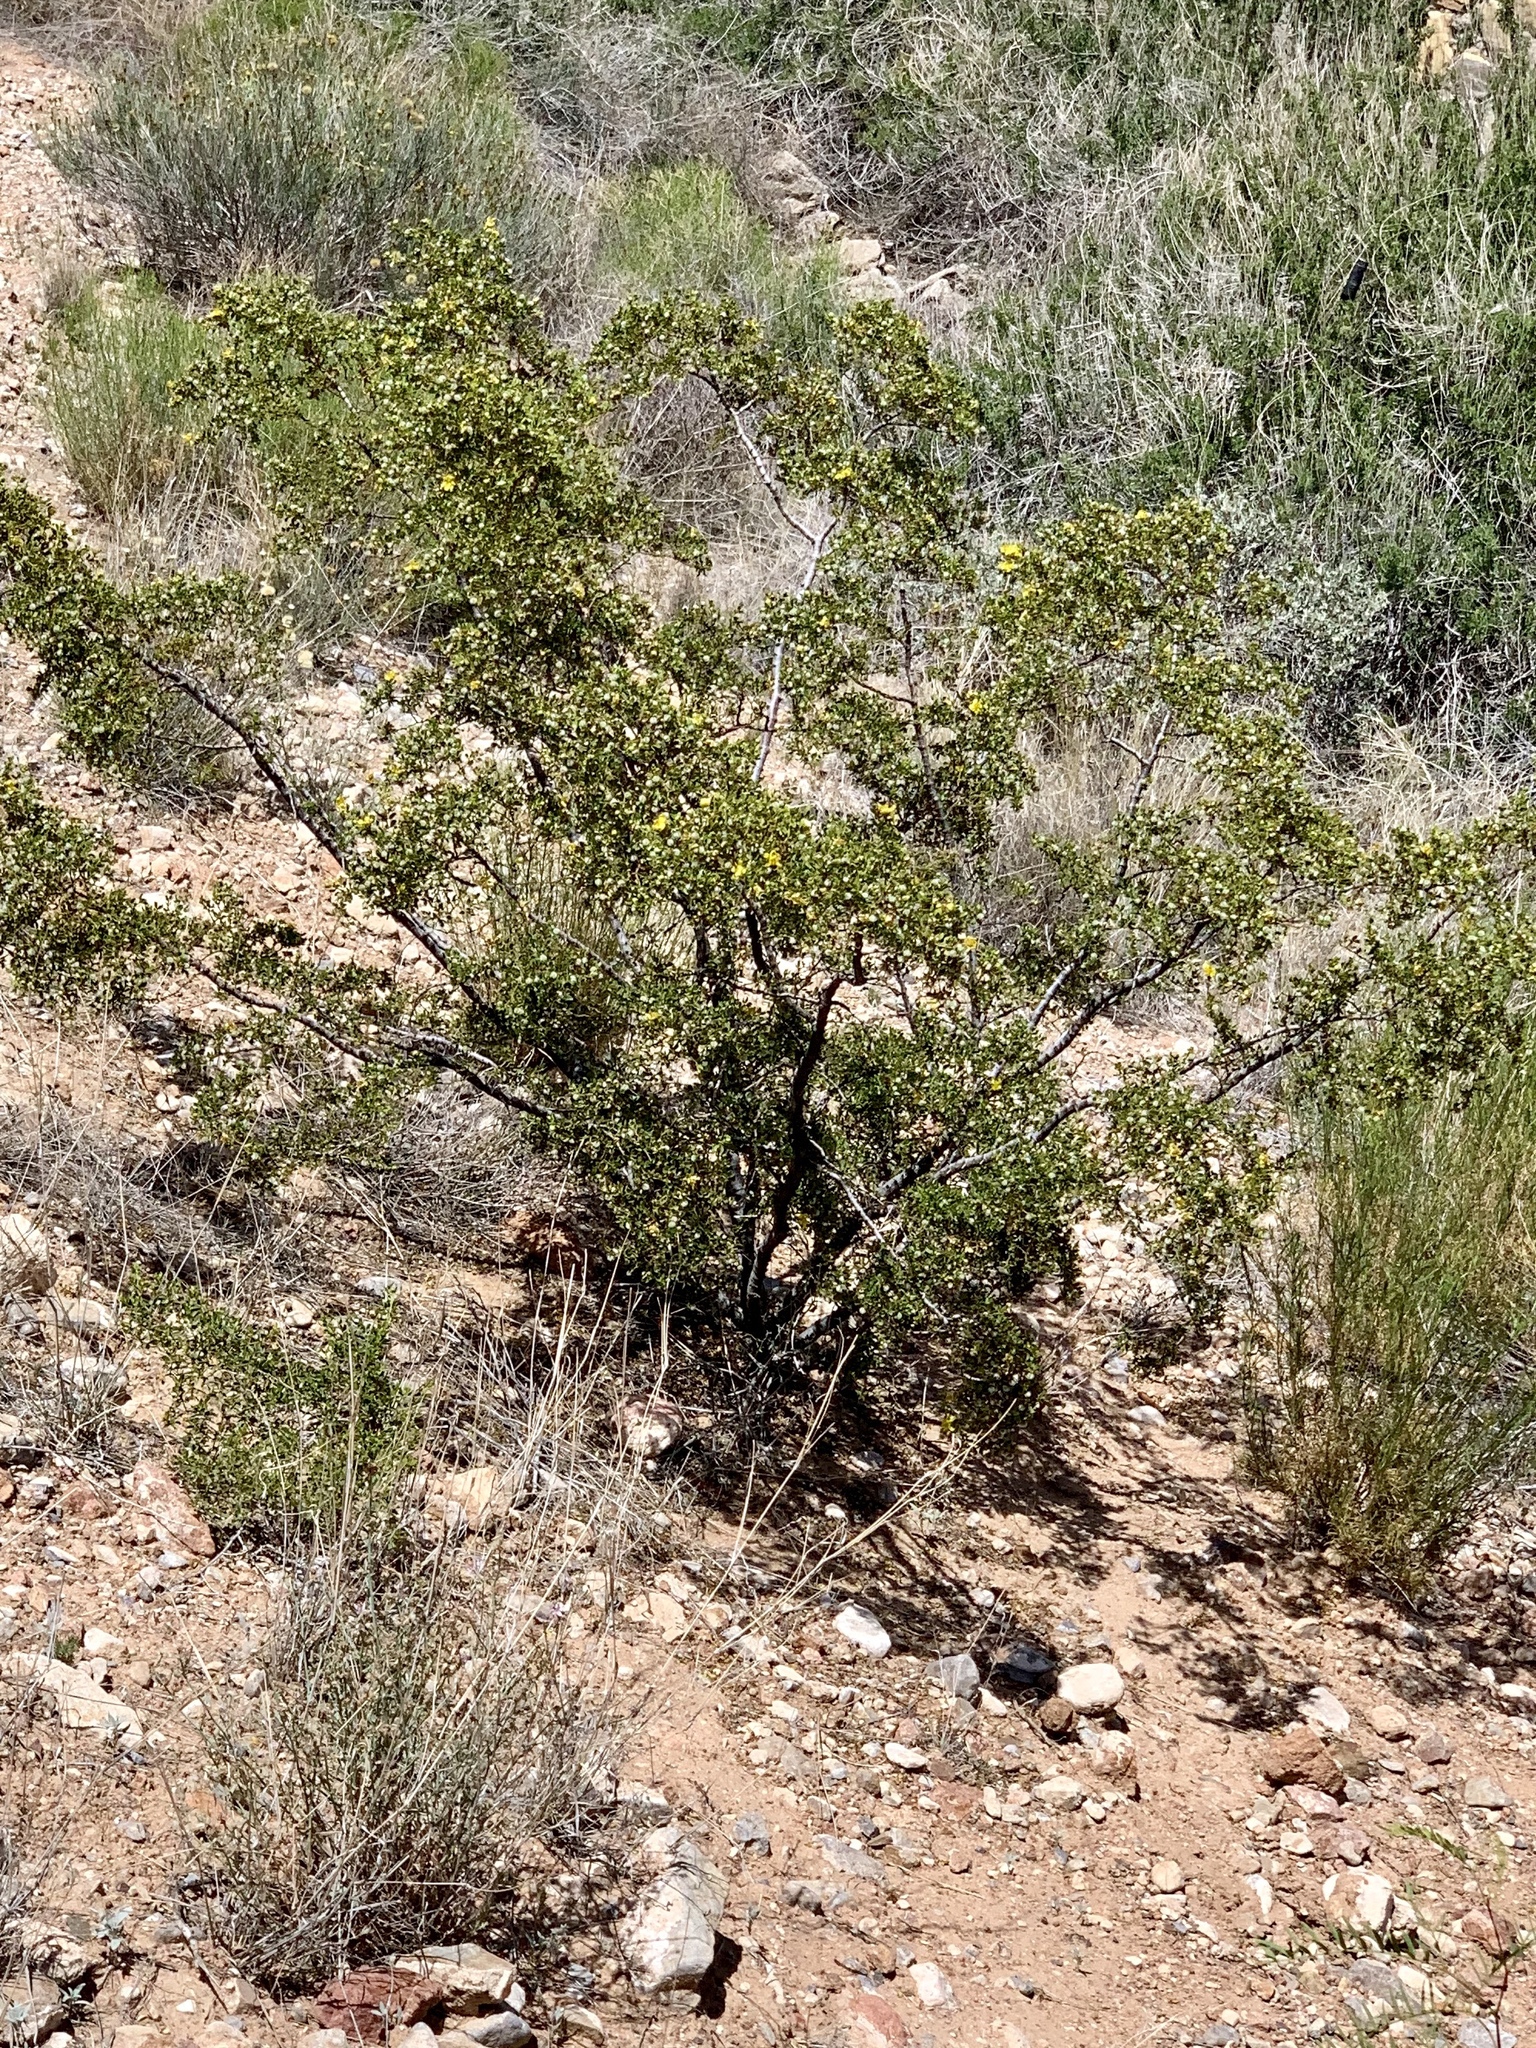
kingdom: Plantae
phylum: Tracheophyta
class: Magnoliopsida
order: Zygophyllales
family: Zygophyllaceae
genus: Larrea
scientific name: Larrea tridentata
